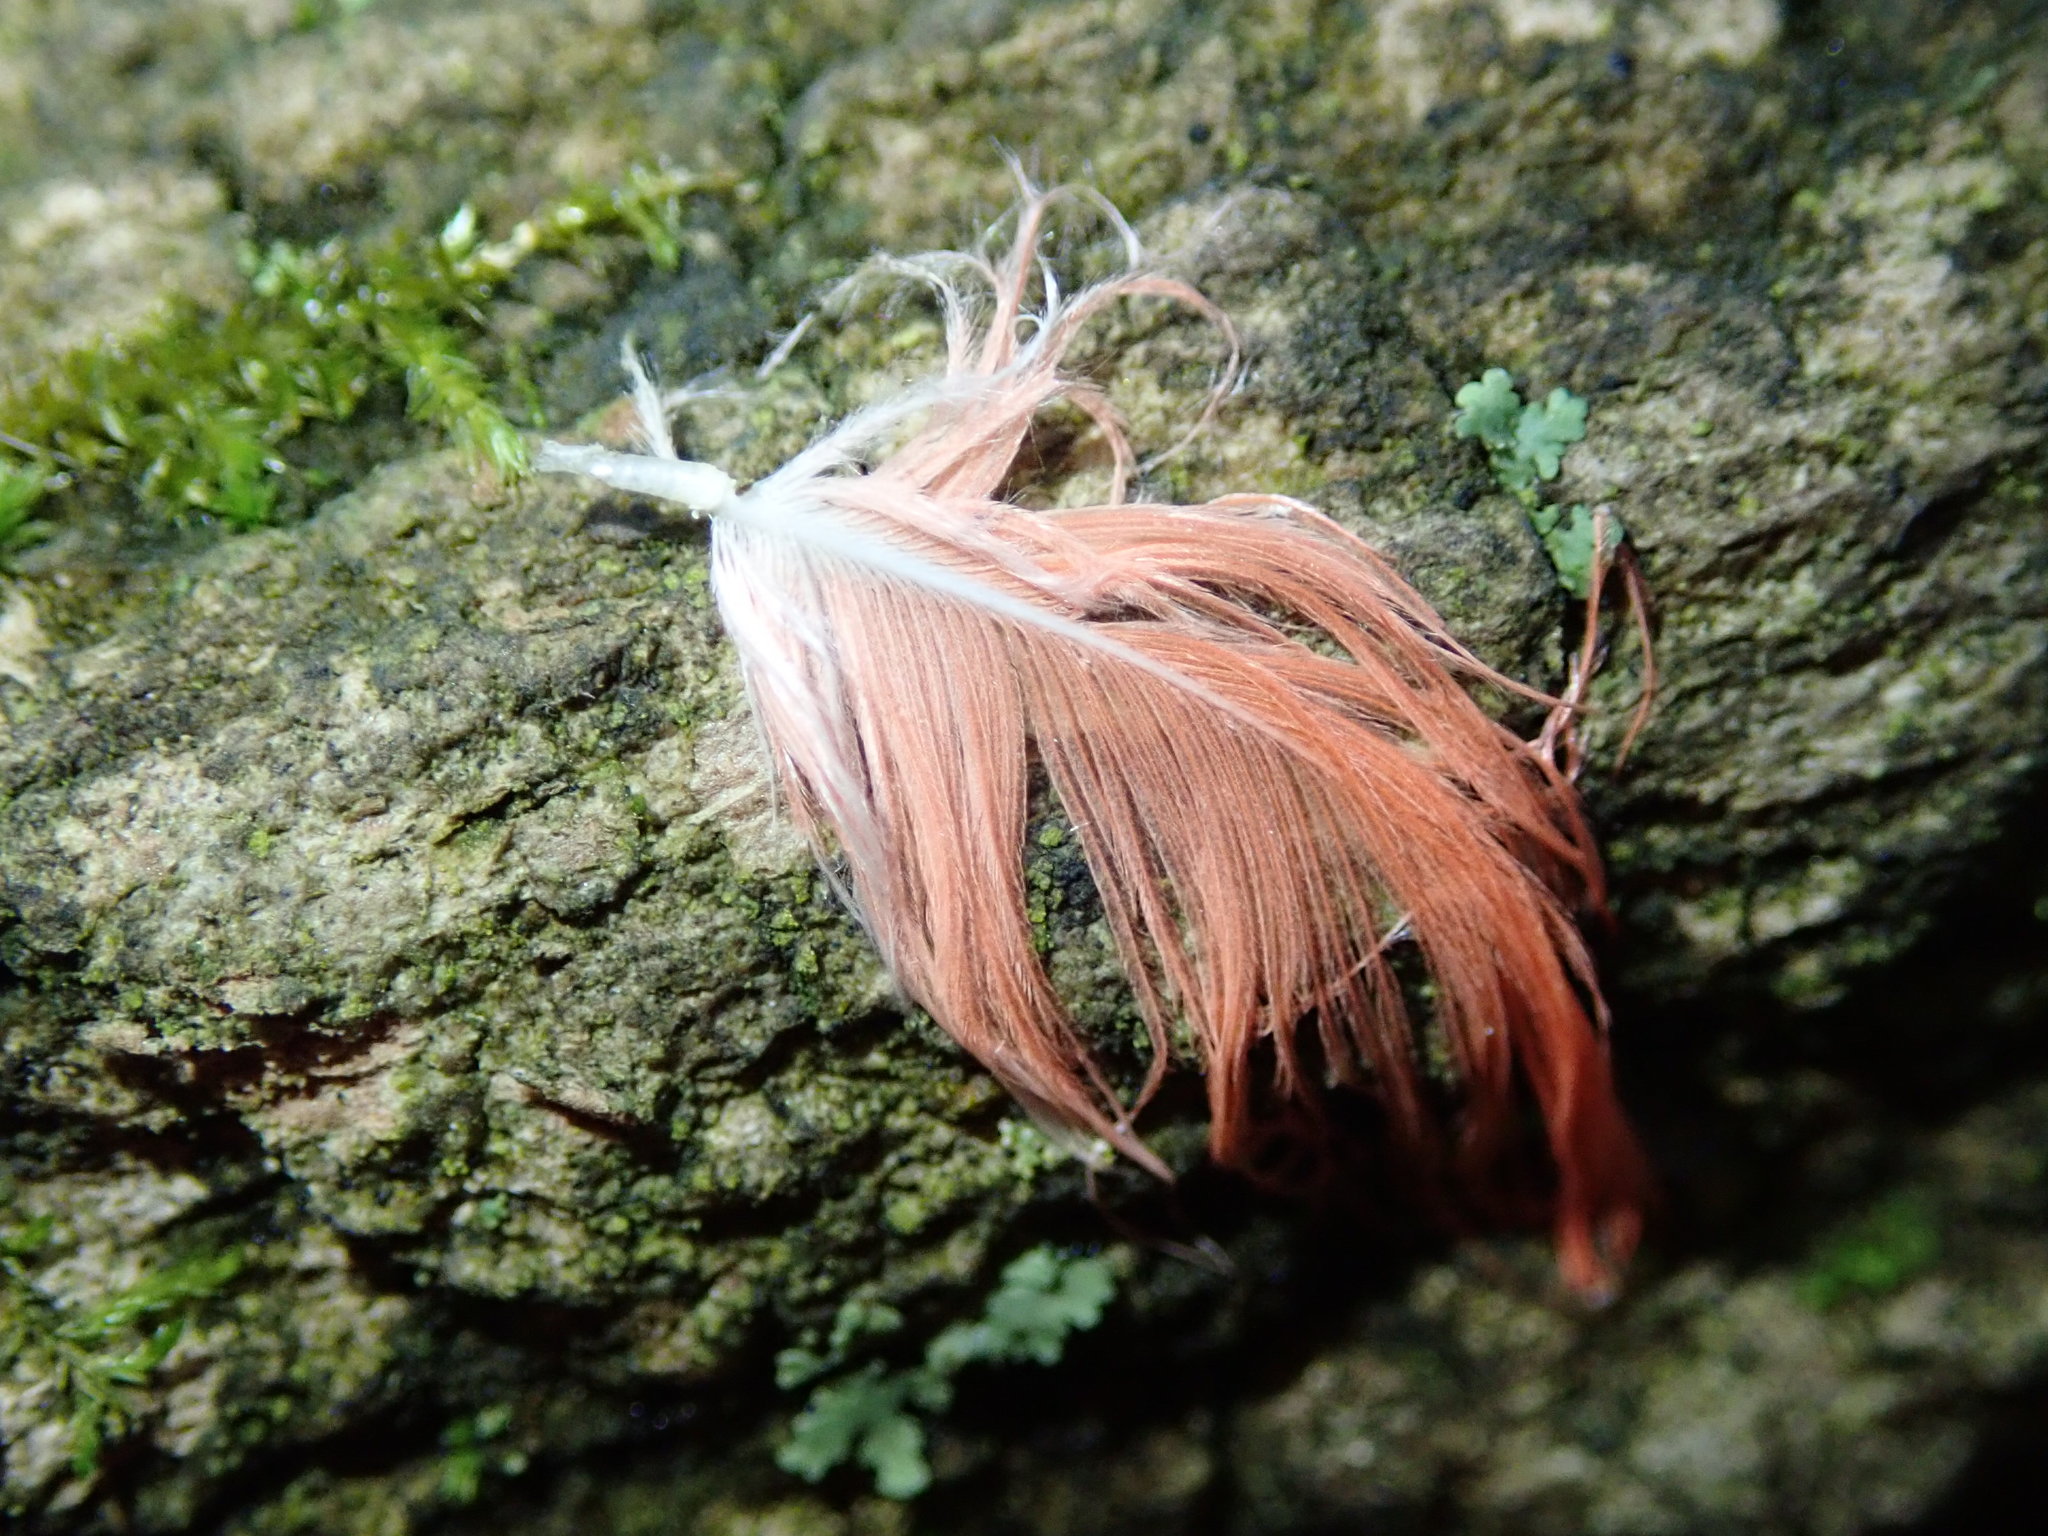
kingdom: Animalia
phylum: Chordata
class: Aves
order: Passeriformes
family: Cardinalidae
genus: Cardinalis
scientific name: Cardinalis cardinalis
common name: Northern cardinal
